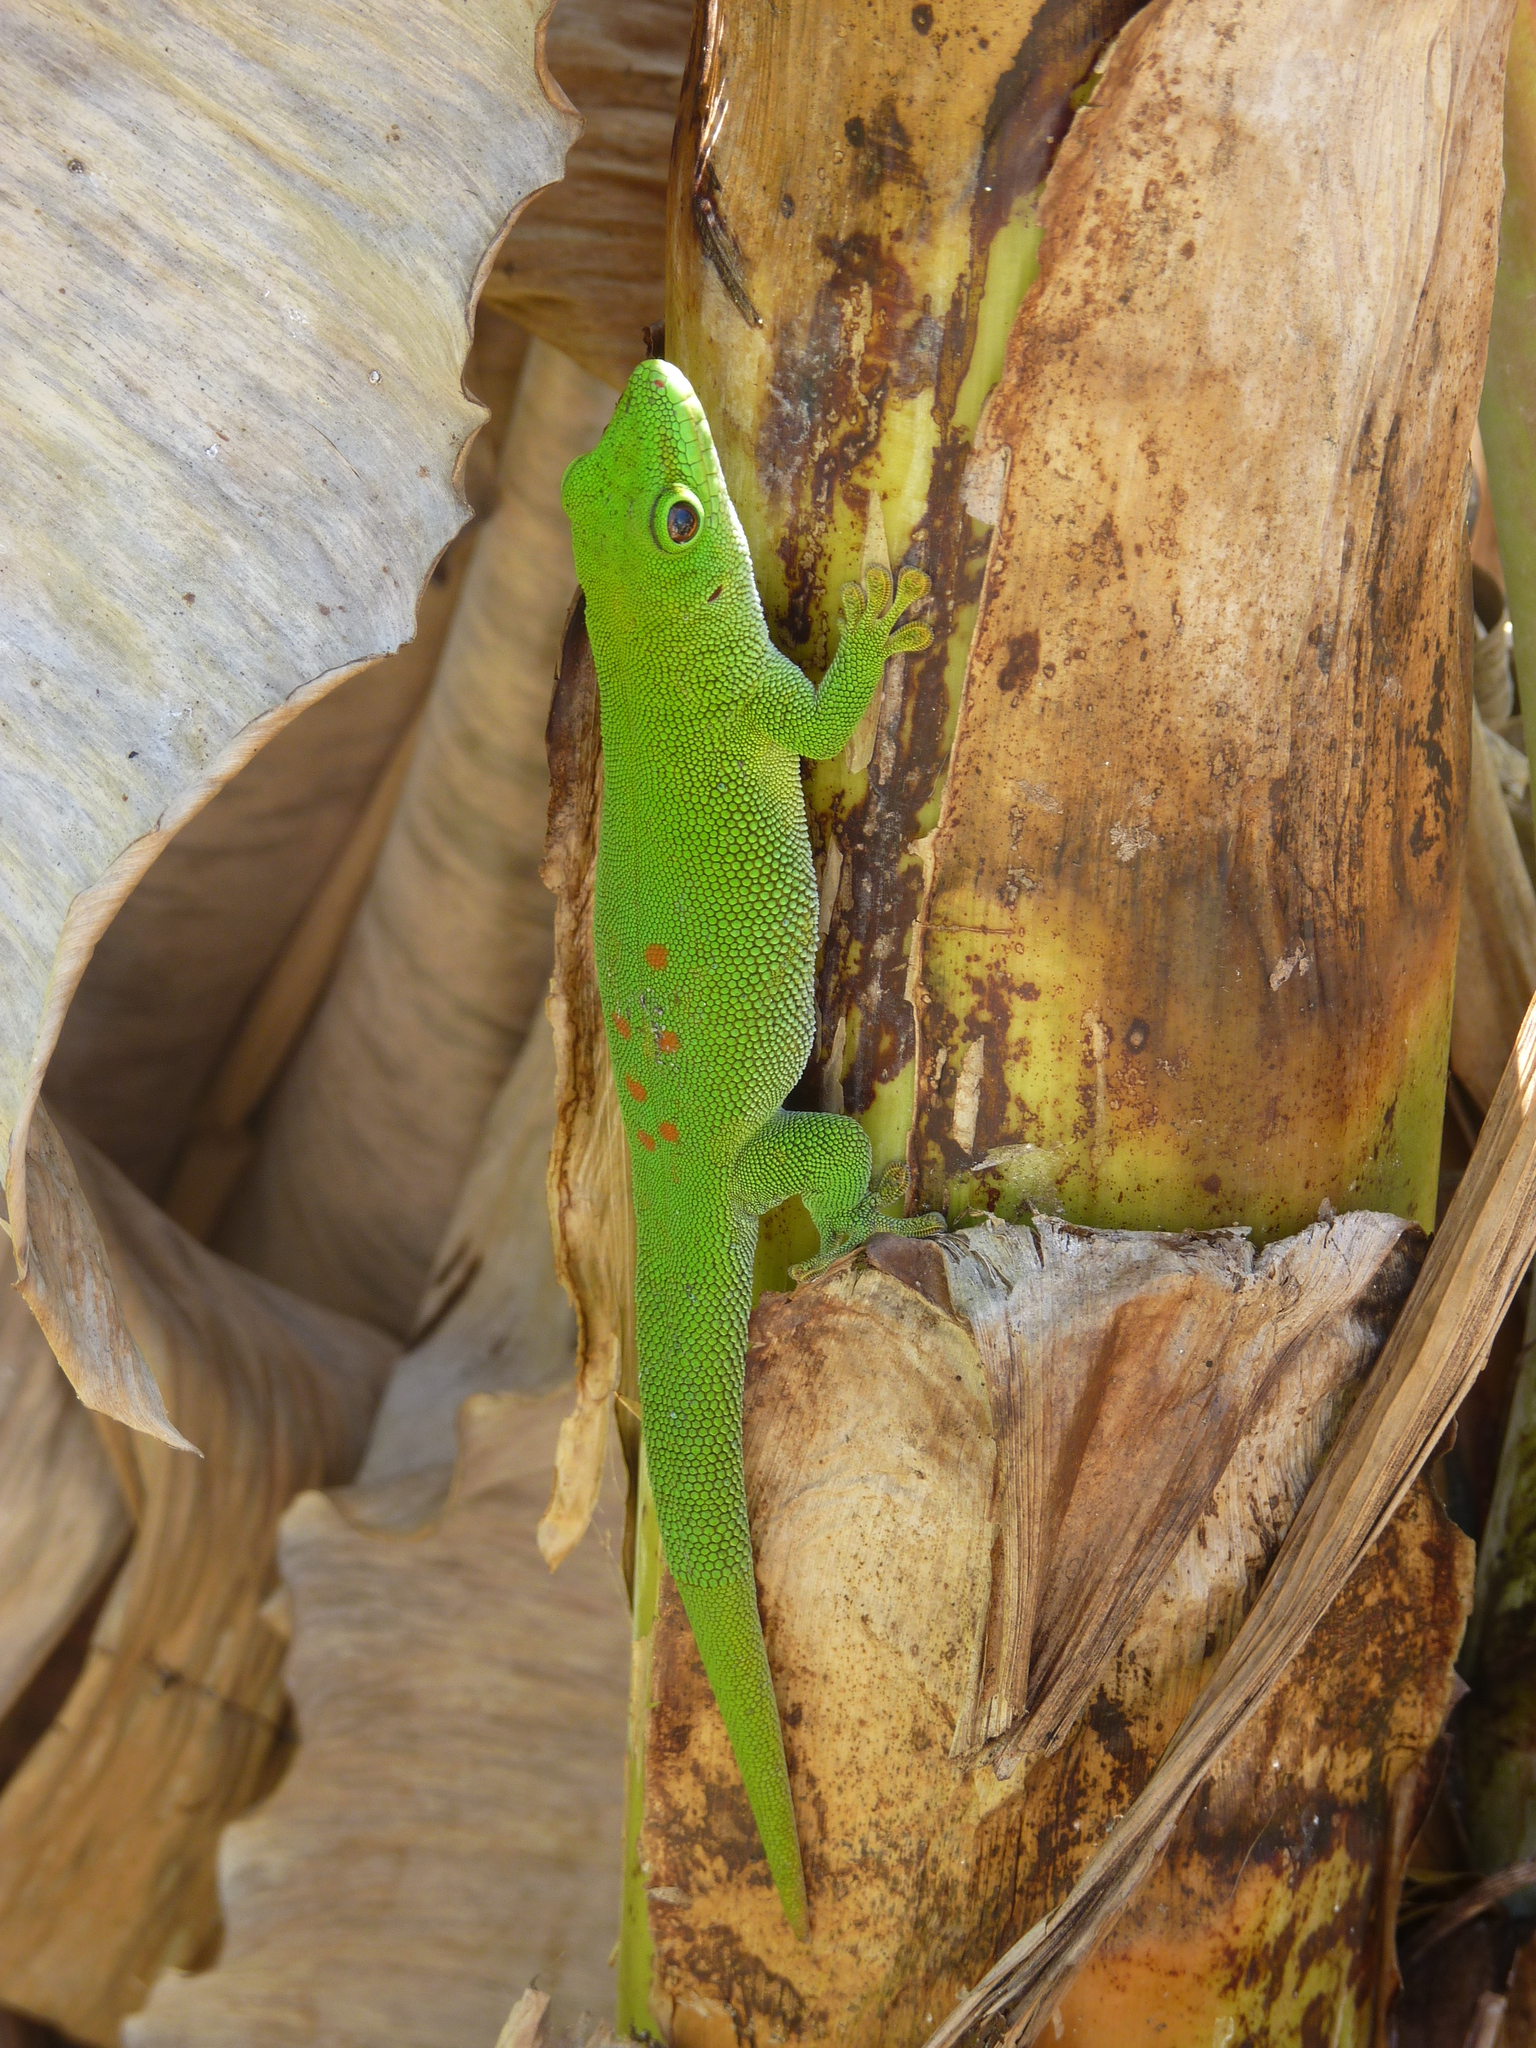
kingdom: Animalia
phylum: Chordata
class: Squamata
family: Gekkonidae
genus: Phelsuma
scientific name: Phelsuma grandis
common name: Madagascar giant day gecko
